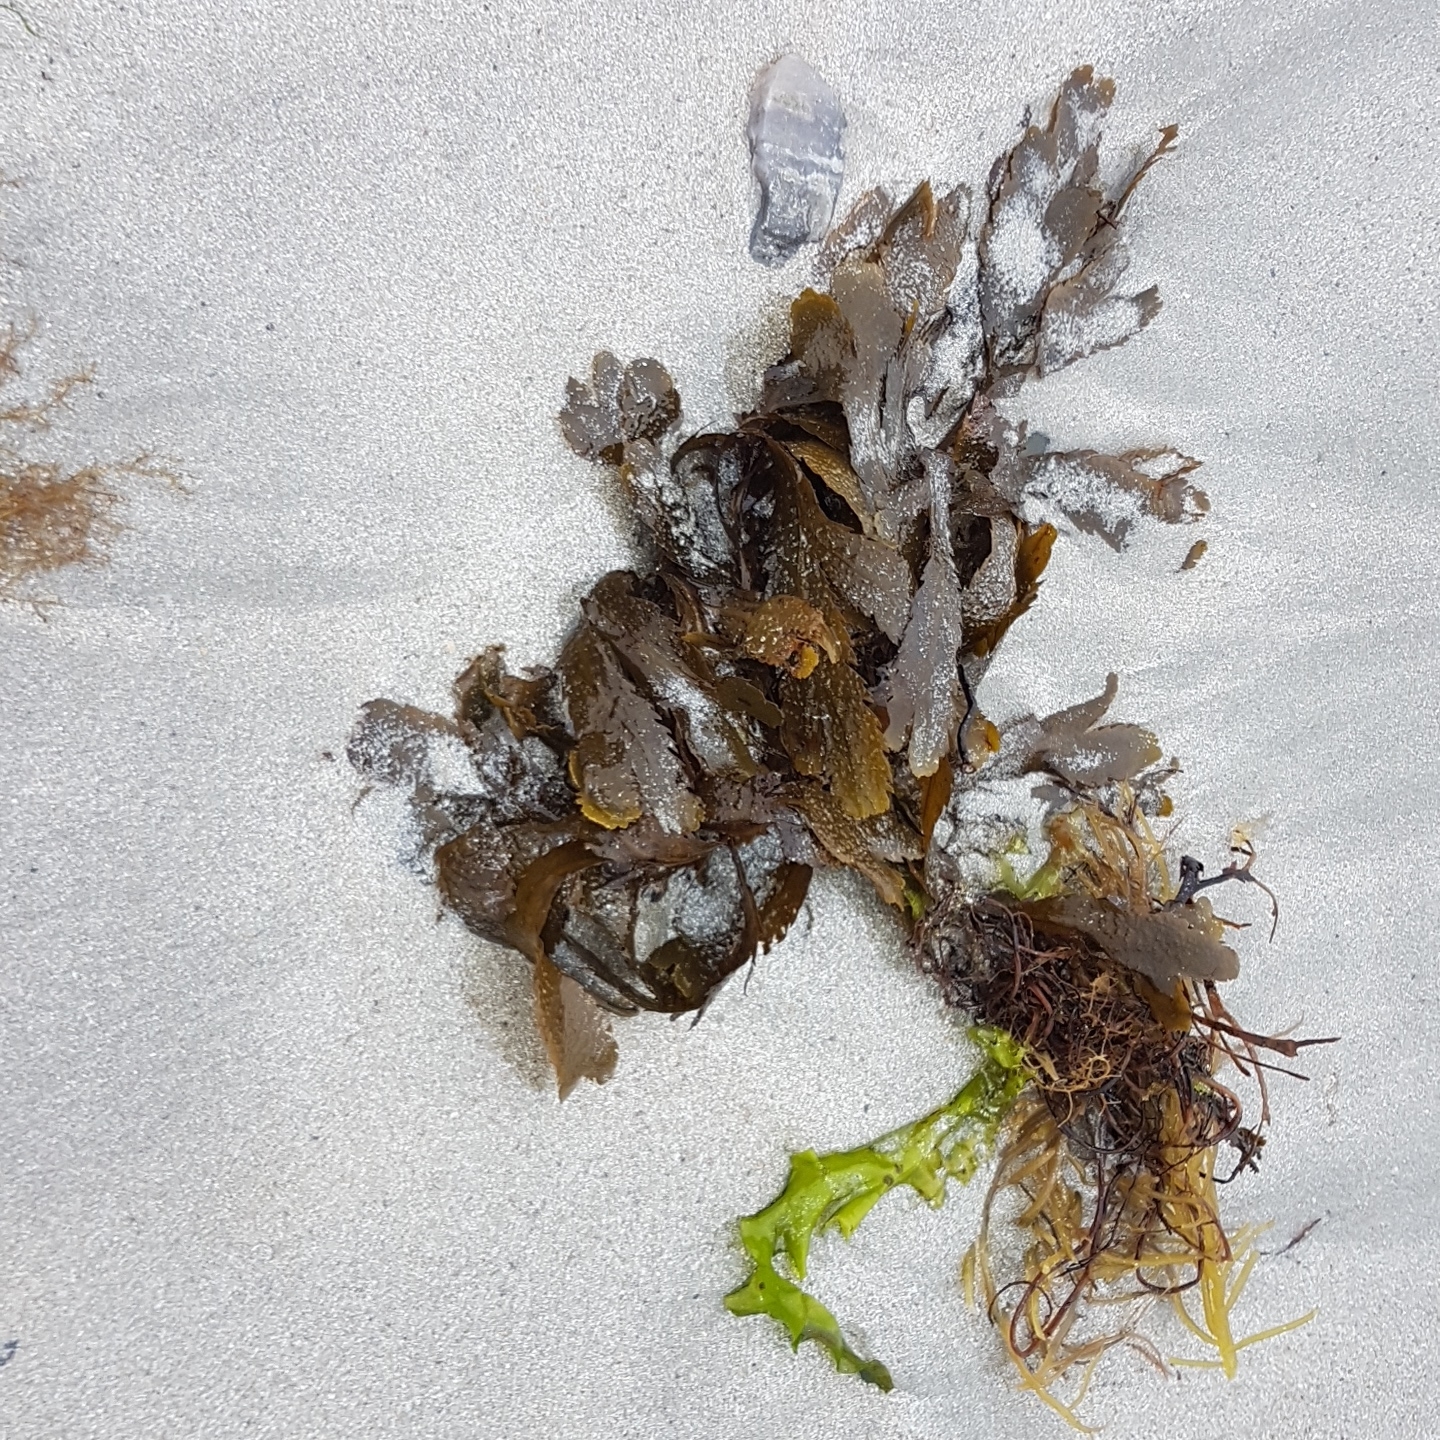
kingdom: Chromista
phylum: Ochrophyta
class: Phaeophyceae
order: Fucales
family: Fucaceae
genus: Fucus
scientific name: Fucus serratus
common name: Toothed wrack
